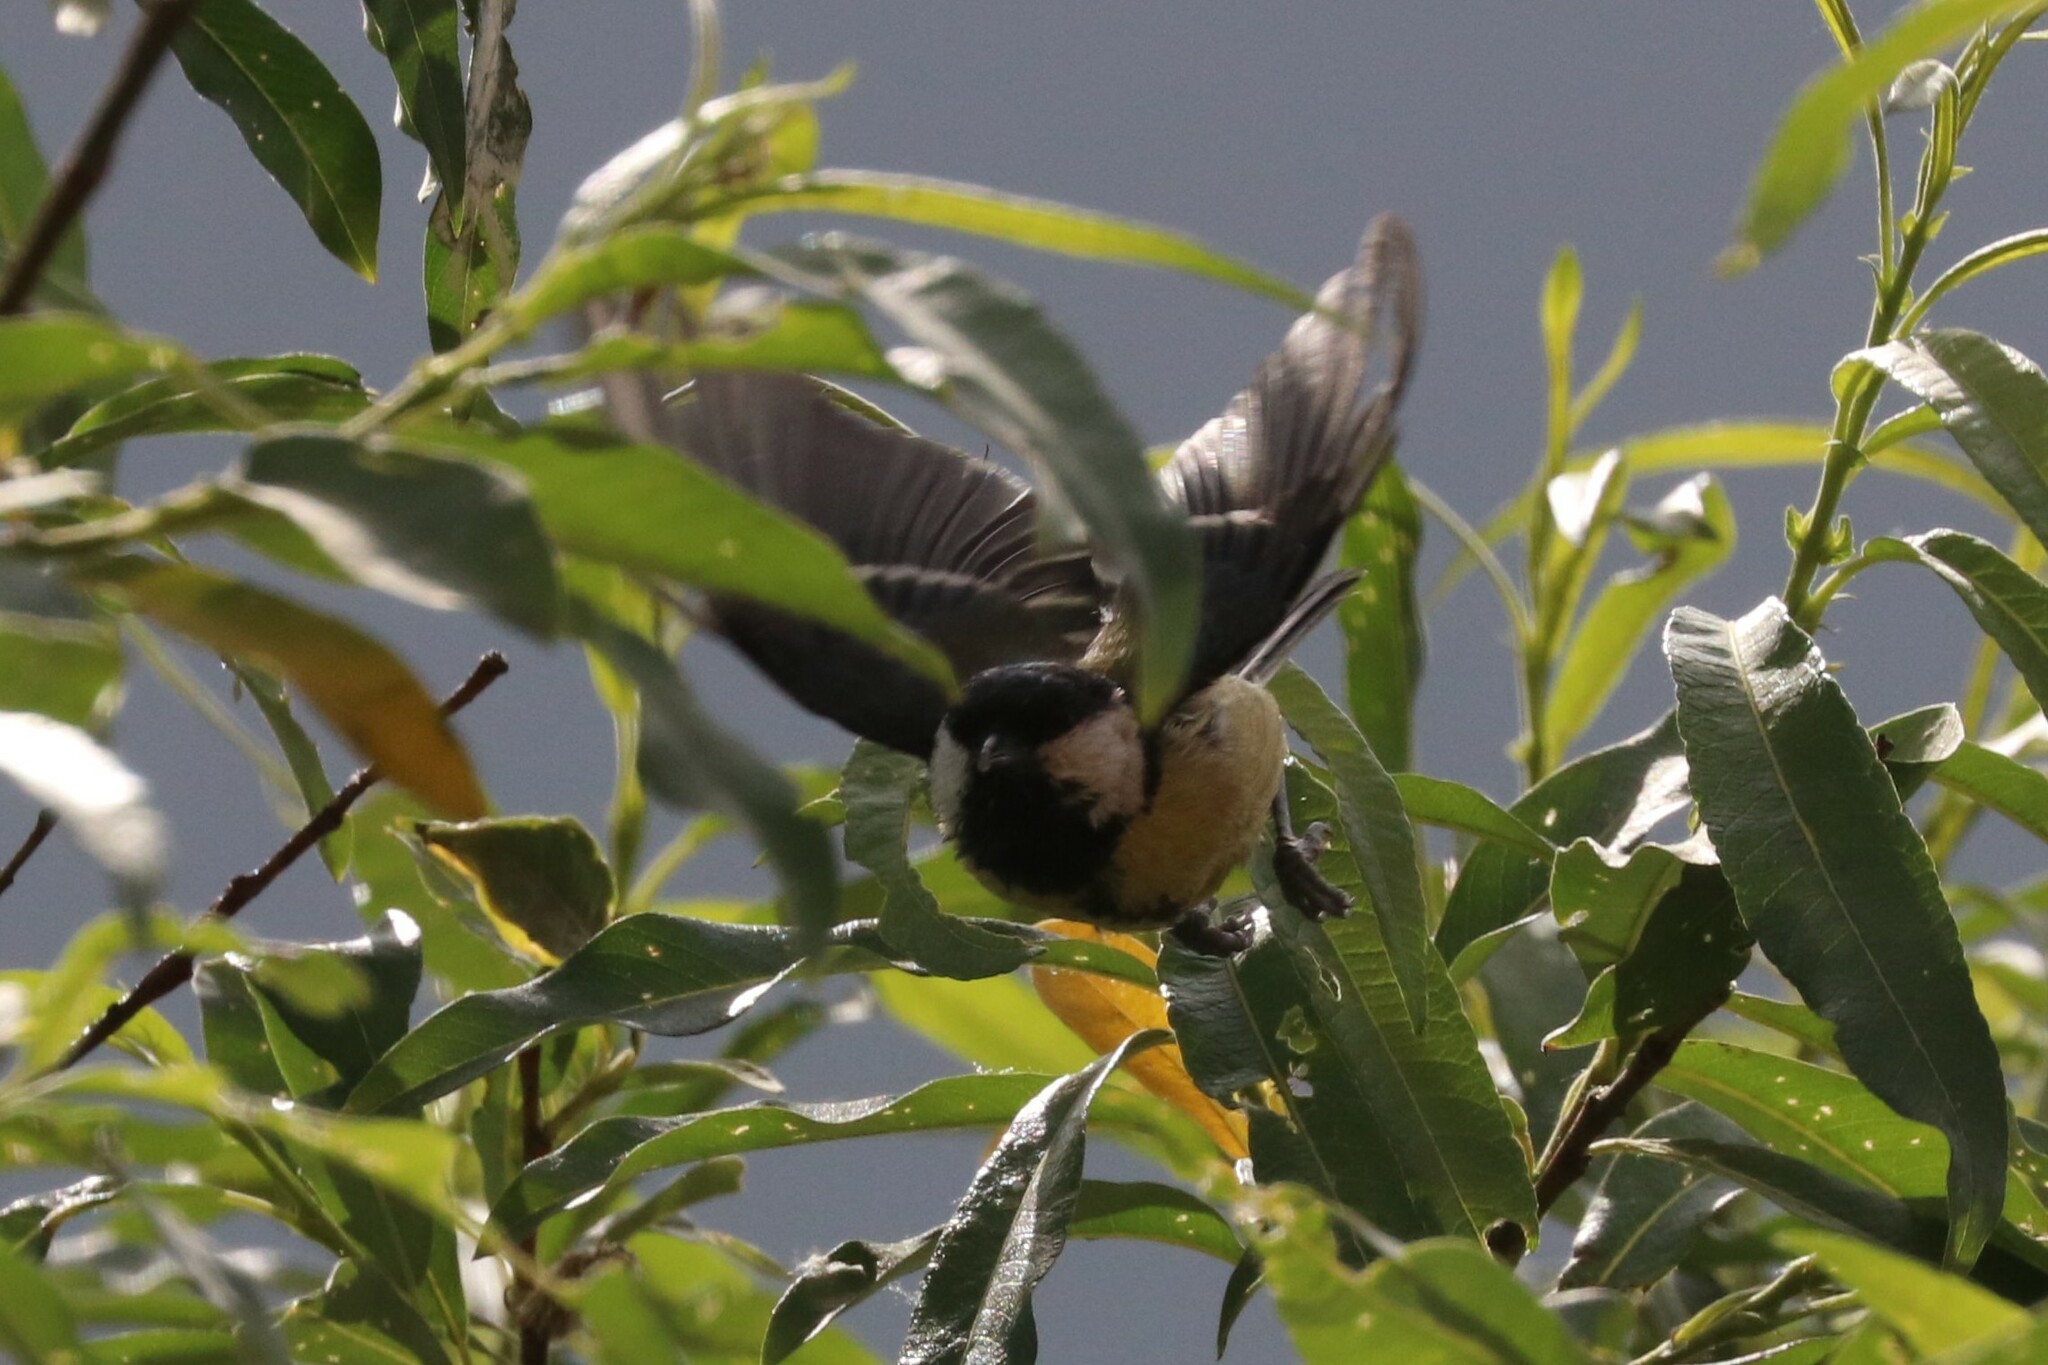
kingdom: Animalia
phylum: Chordata
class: Aves
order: Passeriformes
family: Paridae
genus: Parus
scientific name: Parus major
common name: Great tit
